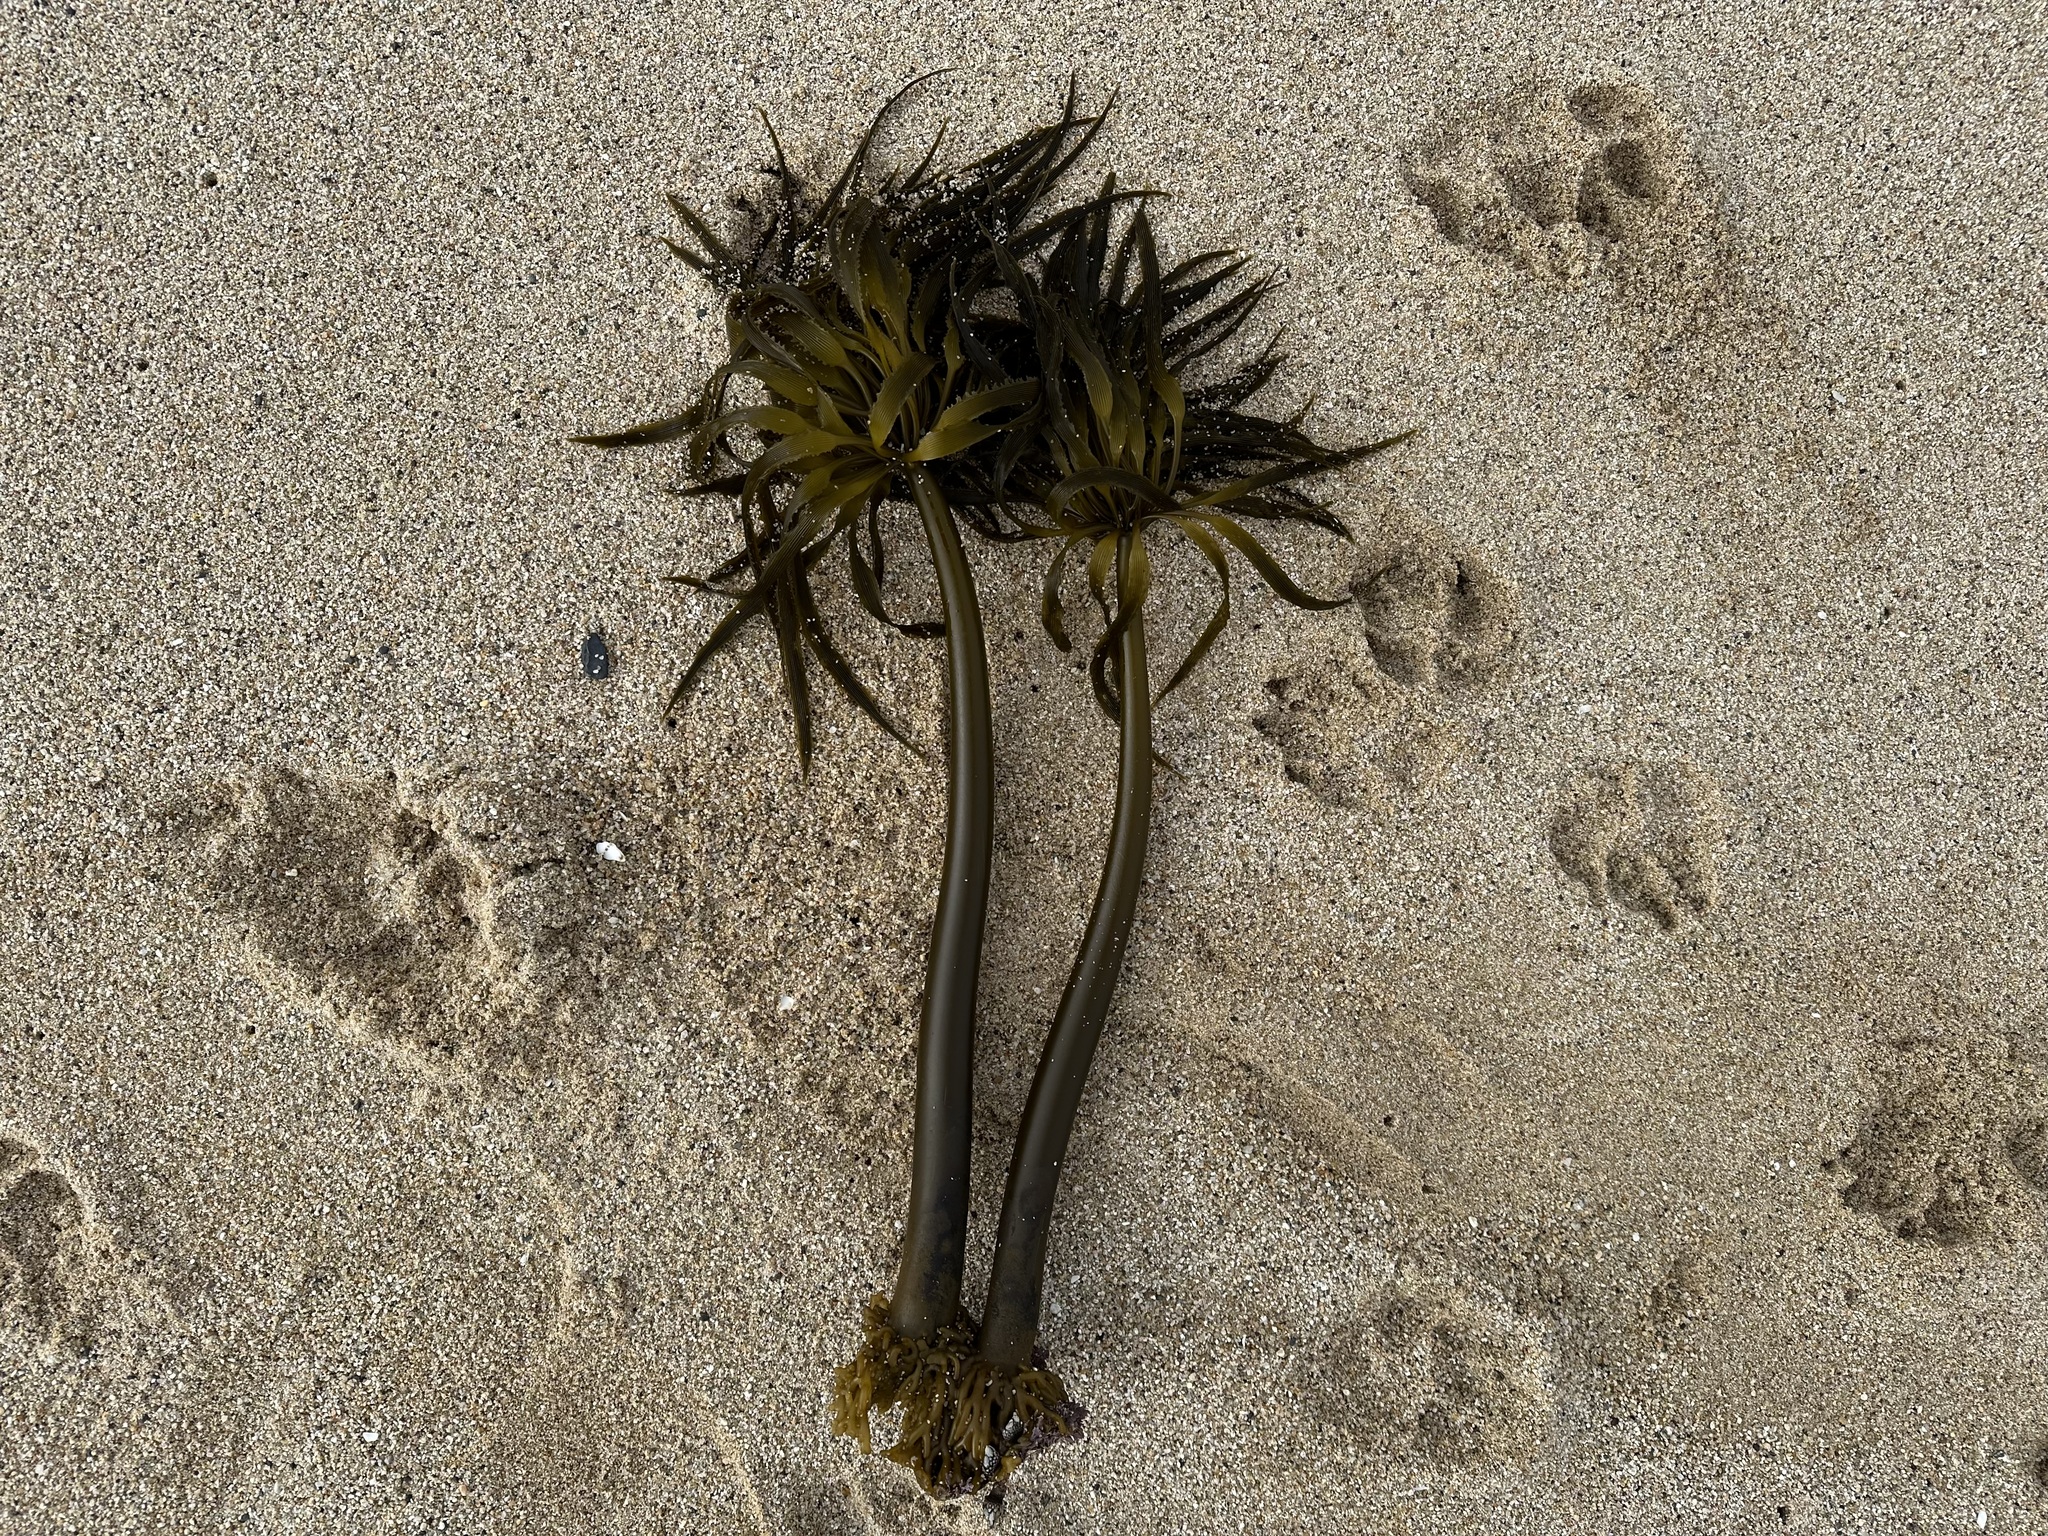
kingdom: Chromista
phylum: Ochrophyta
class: Phaeophyceae
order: Laminariales
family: Laminariaceae
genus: Postelsia
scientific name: Postelsia palmiformis
